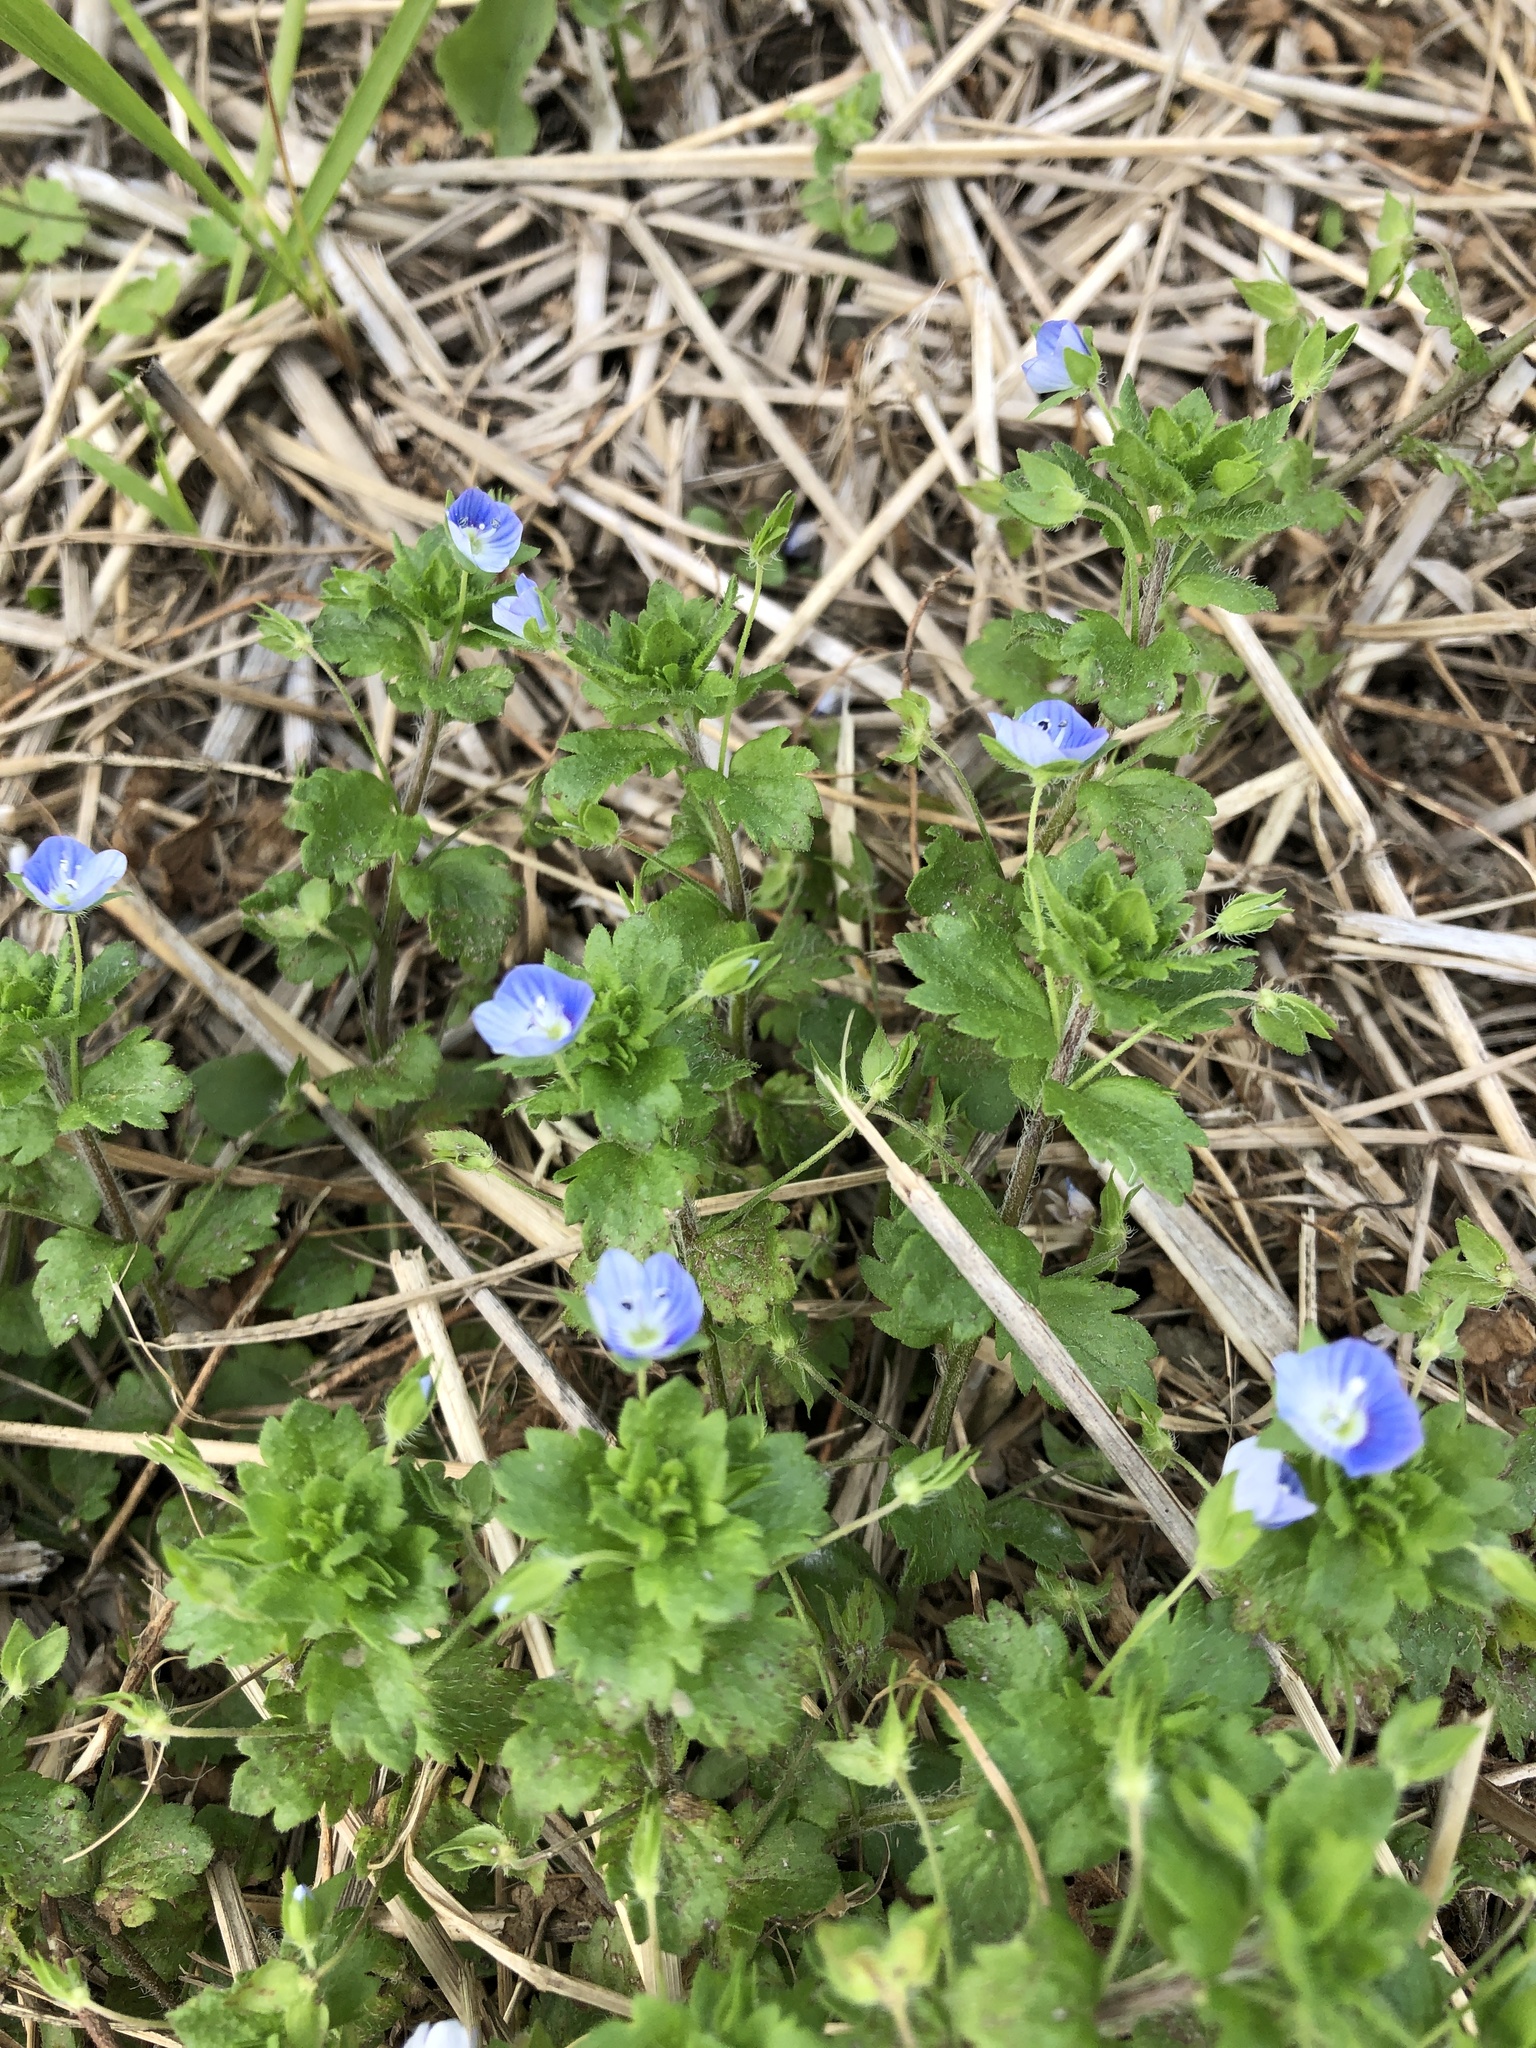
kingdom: Plantae
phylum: Tracheophyta
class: Magnoliopsida
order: Lamiales
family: Plantaginaceae
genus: Veronica
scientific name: Veronica persica
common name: Common field-speedwell
